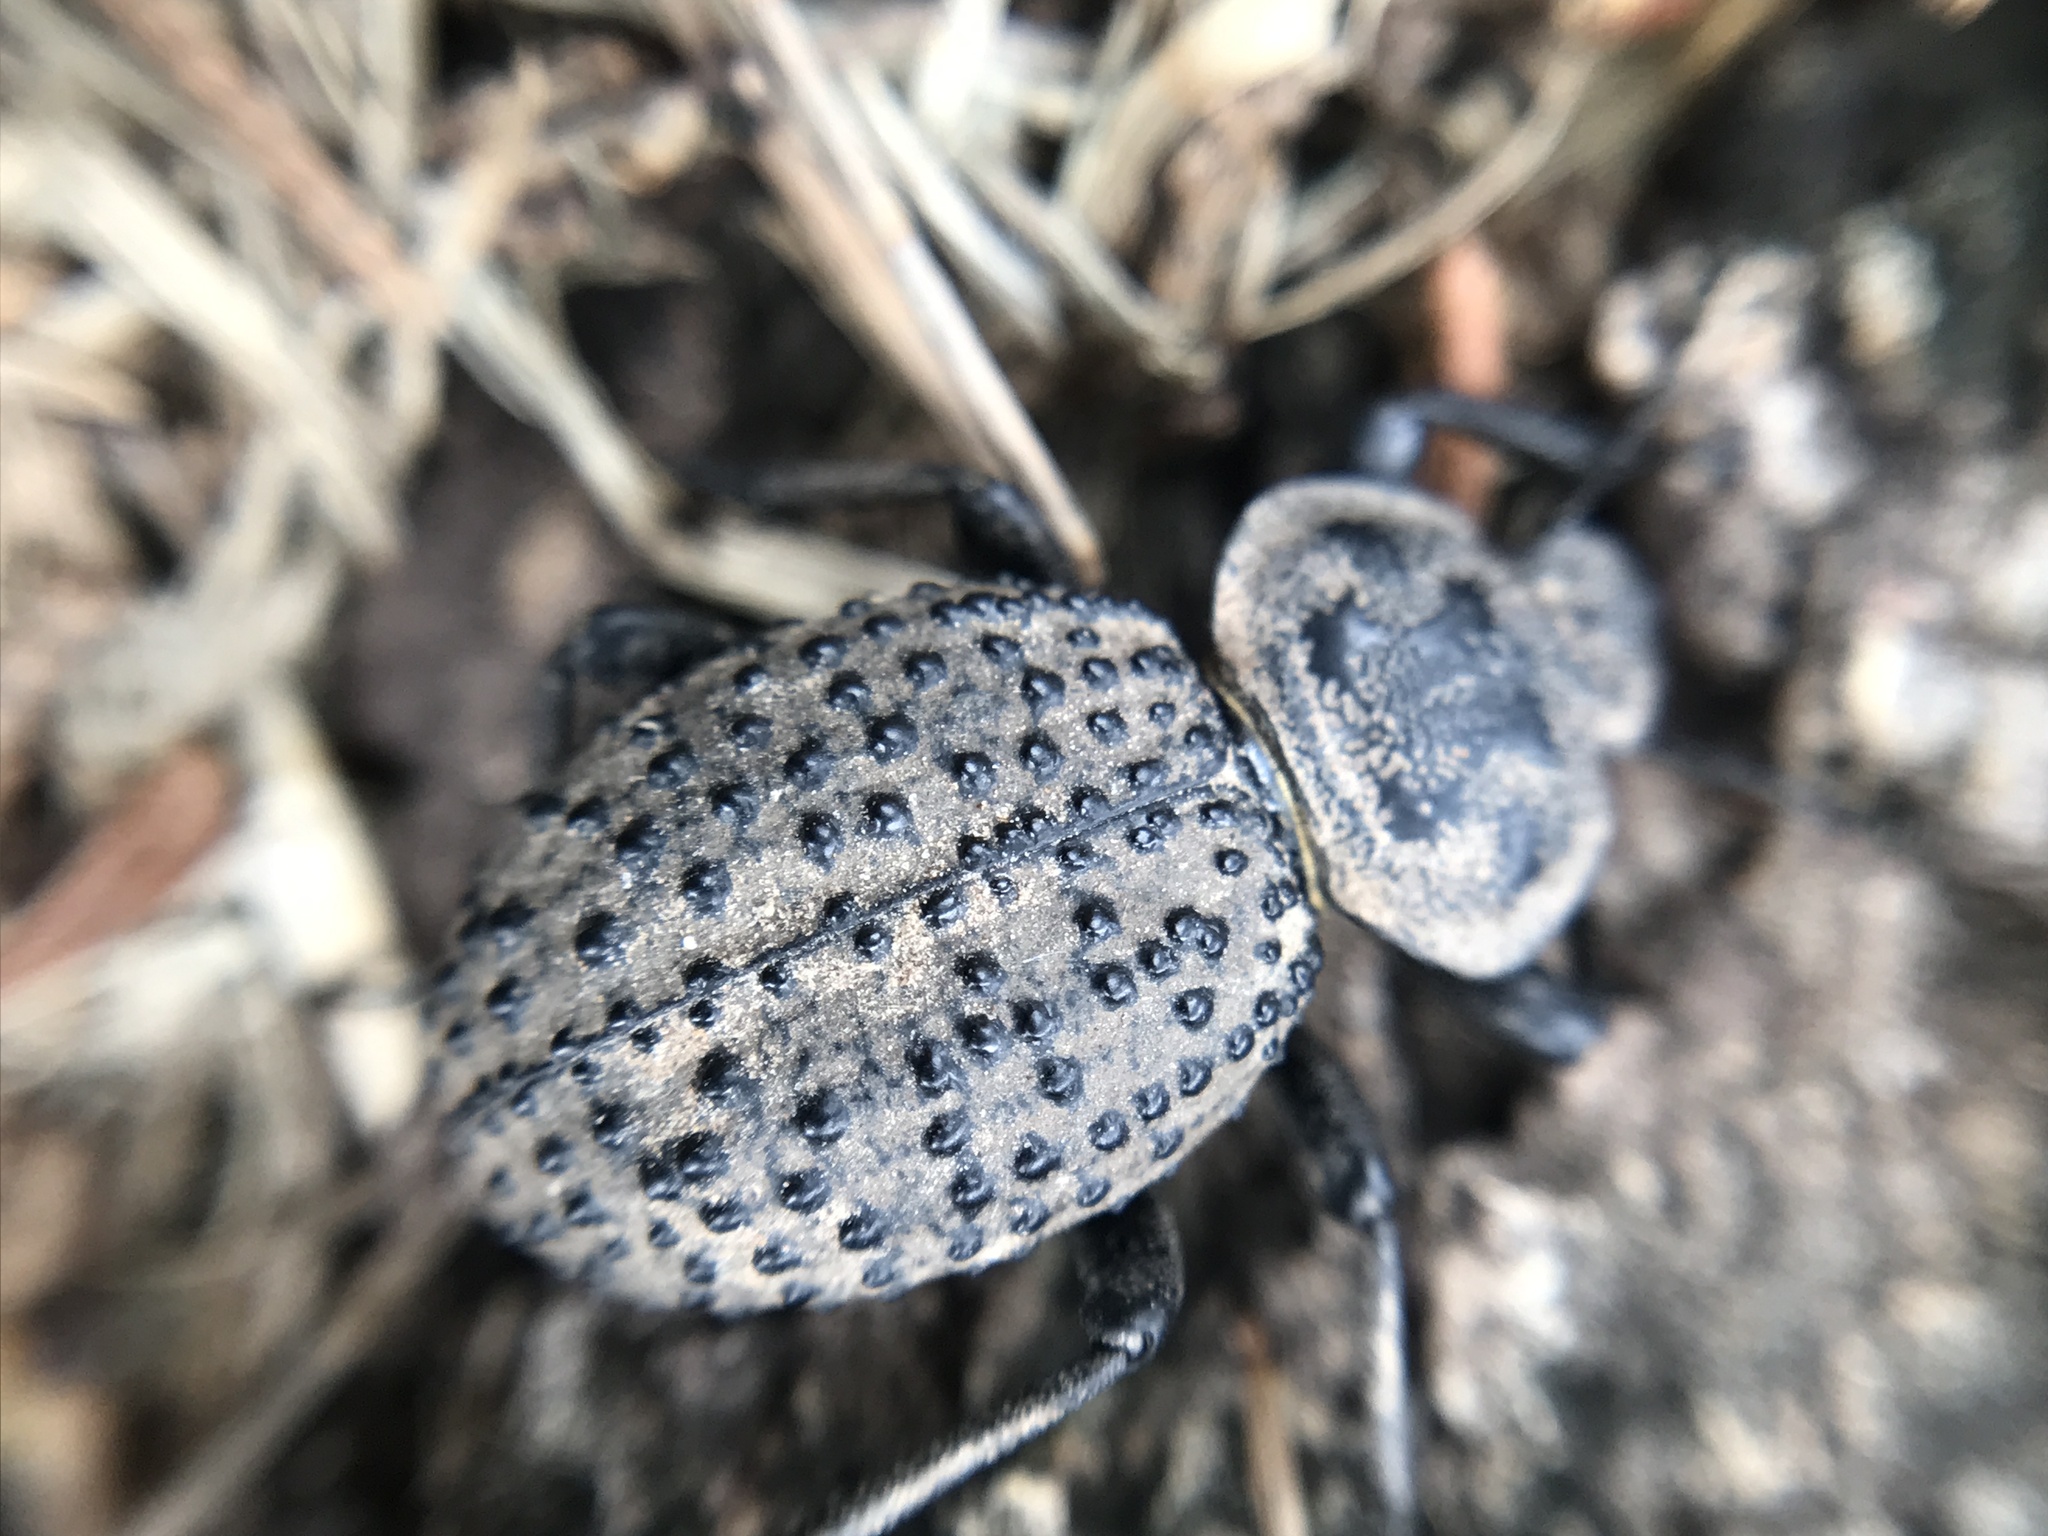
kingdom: Animalia
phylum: Arthropoda
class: Insecta
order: Coleoptera
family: Tenebrionidae
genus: Scotobius
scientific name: Scotobius pilularius
